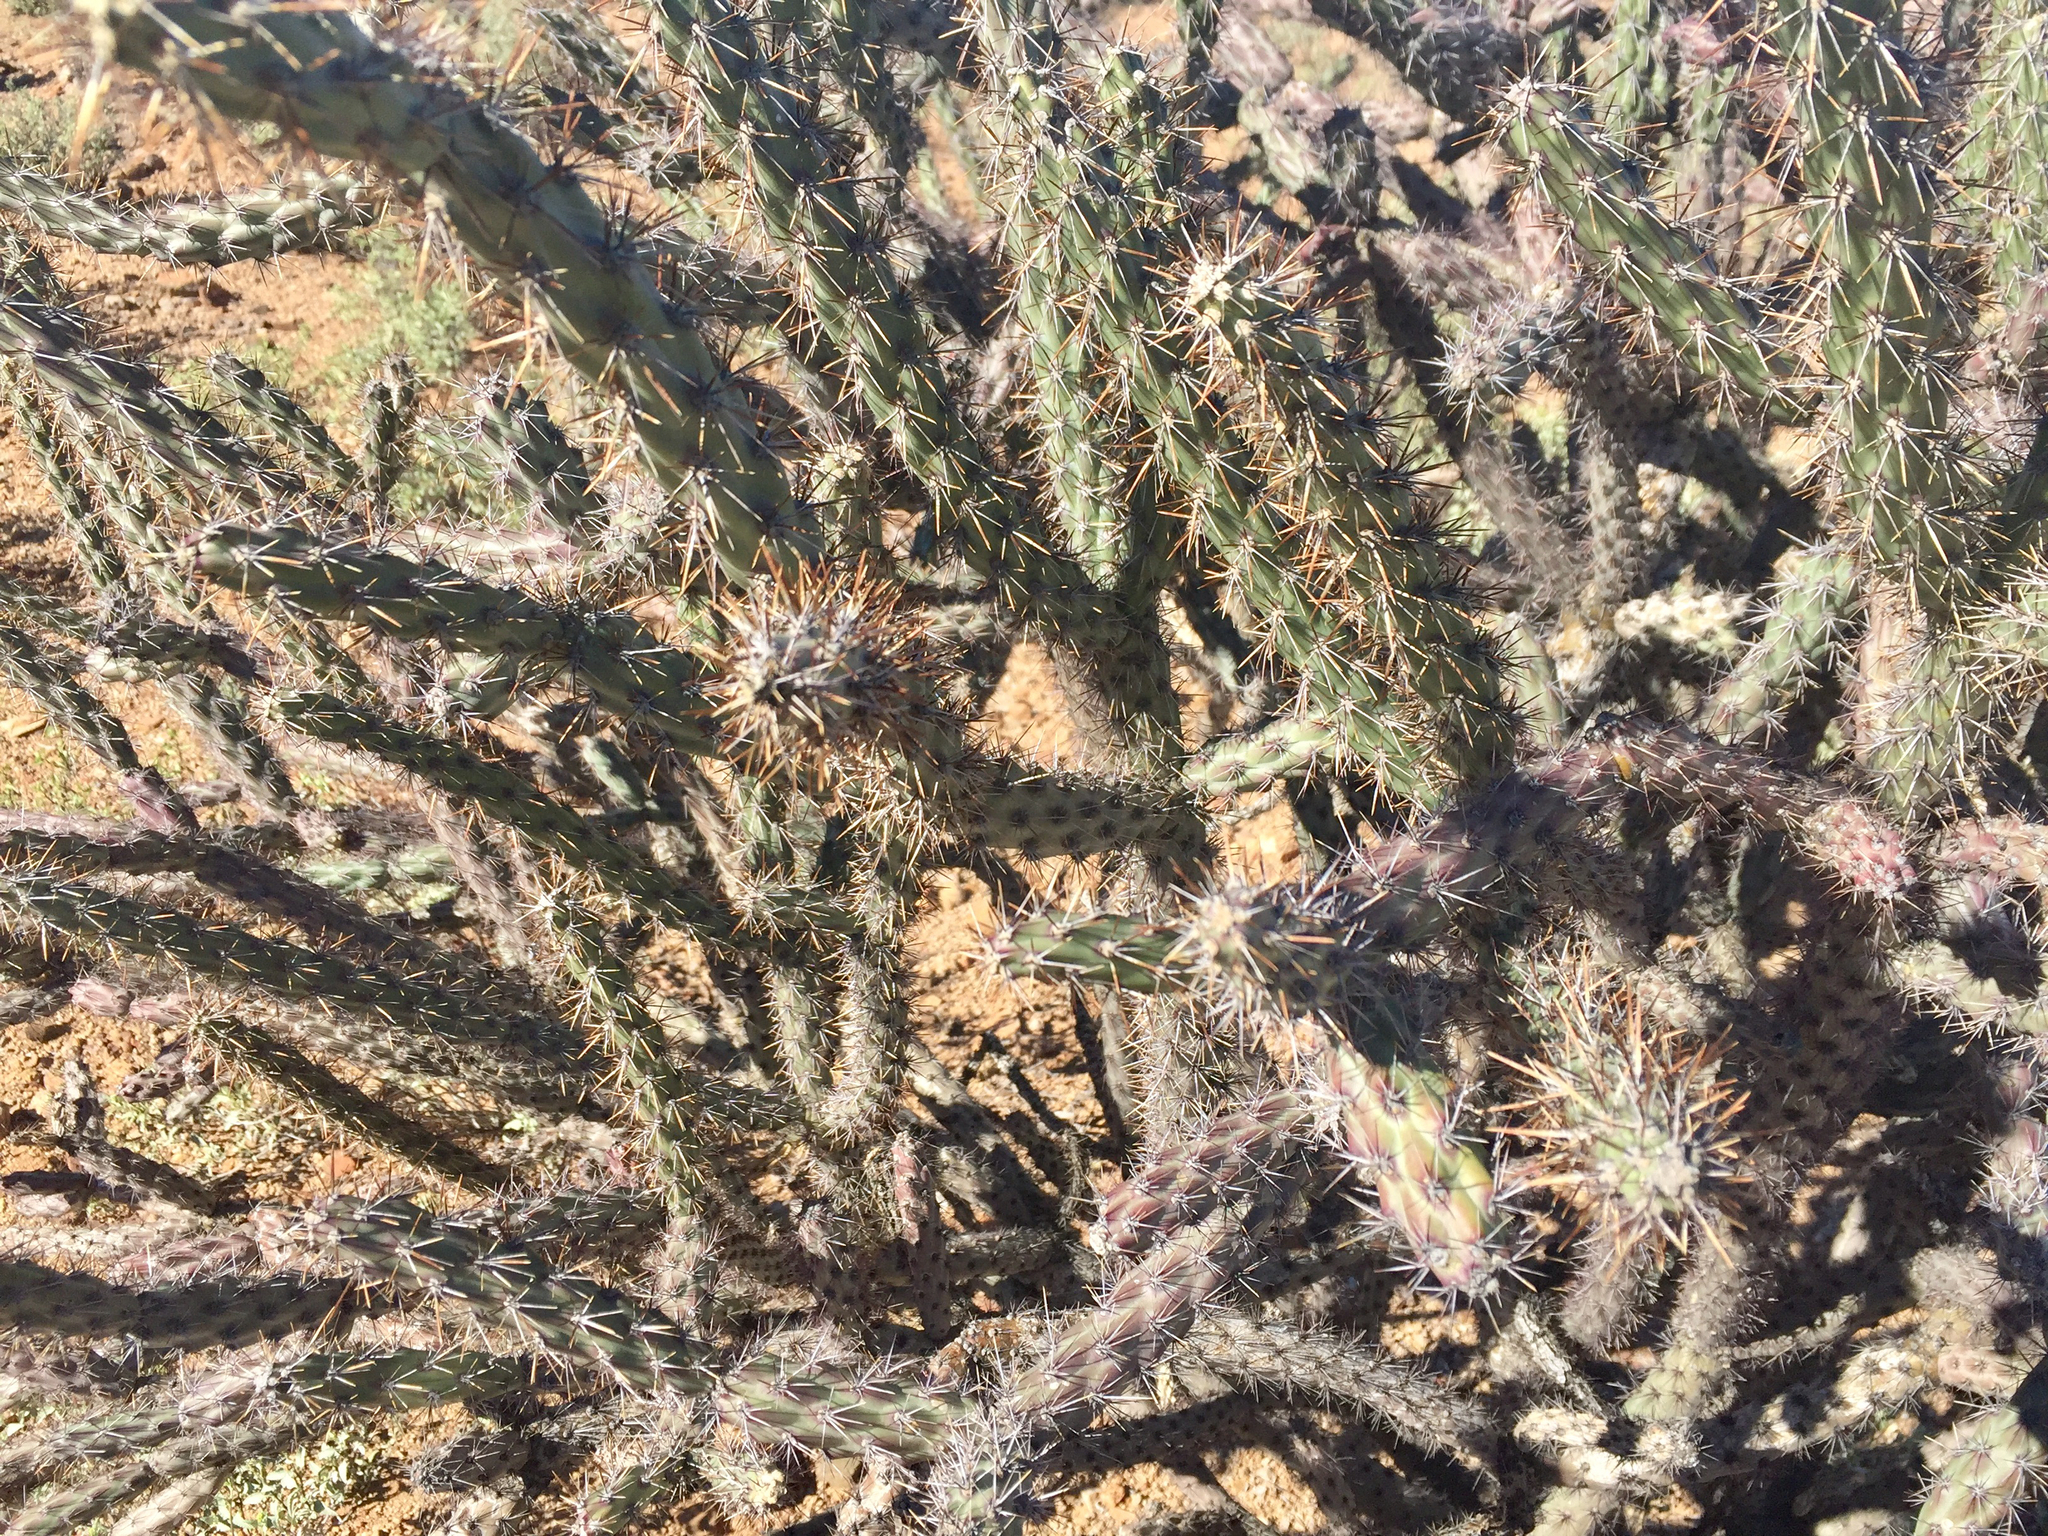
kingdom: Plantae
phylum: Tracheophyta
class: Magnoliopsida
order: Caryophyllales
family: Cactaceae
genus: Cylindropuntia
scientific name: Cylindropuntia acanthocarpa
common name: Buckhorn cholla
